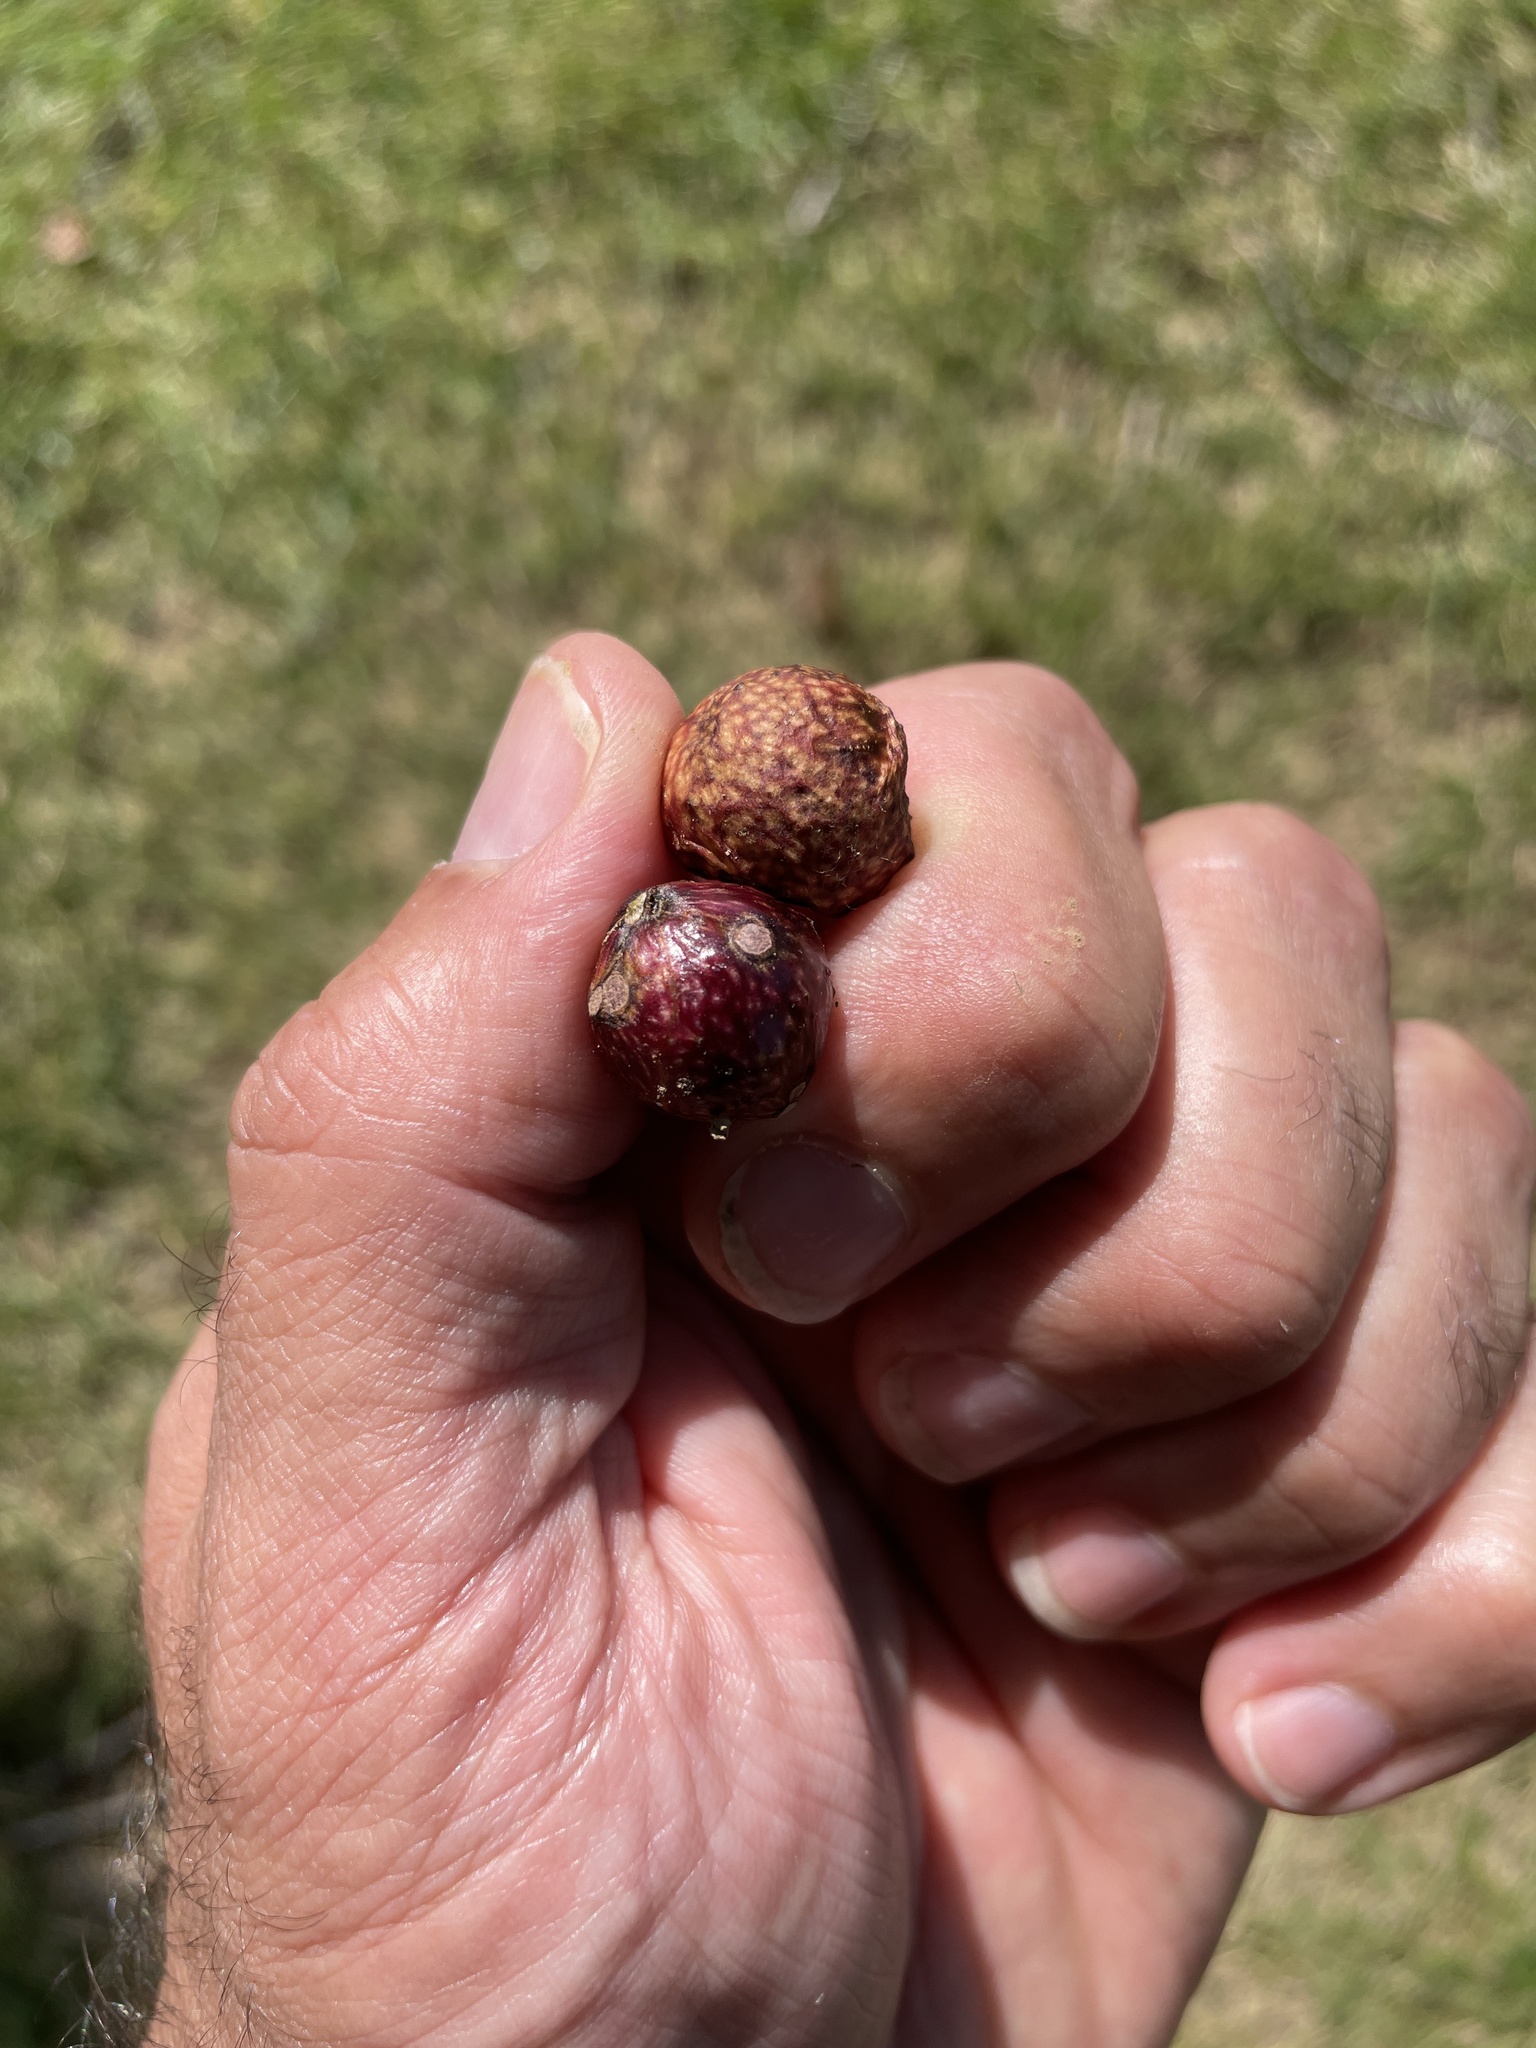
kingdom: Animalia
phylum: Arthropoda
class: Insecta
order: Hymenoptera
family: Cynipidae
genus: Amphibolips
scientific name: Amphibolips
